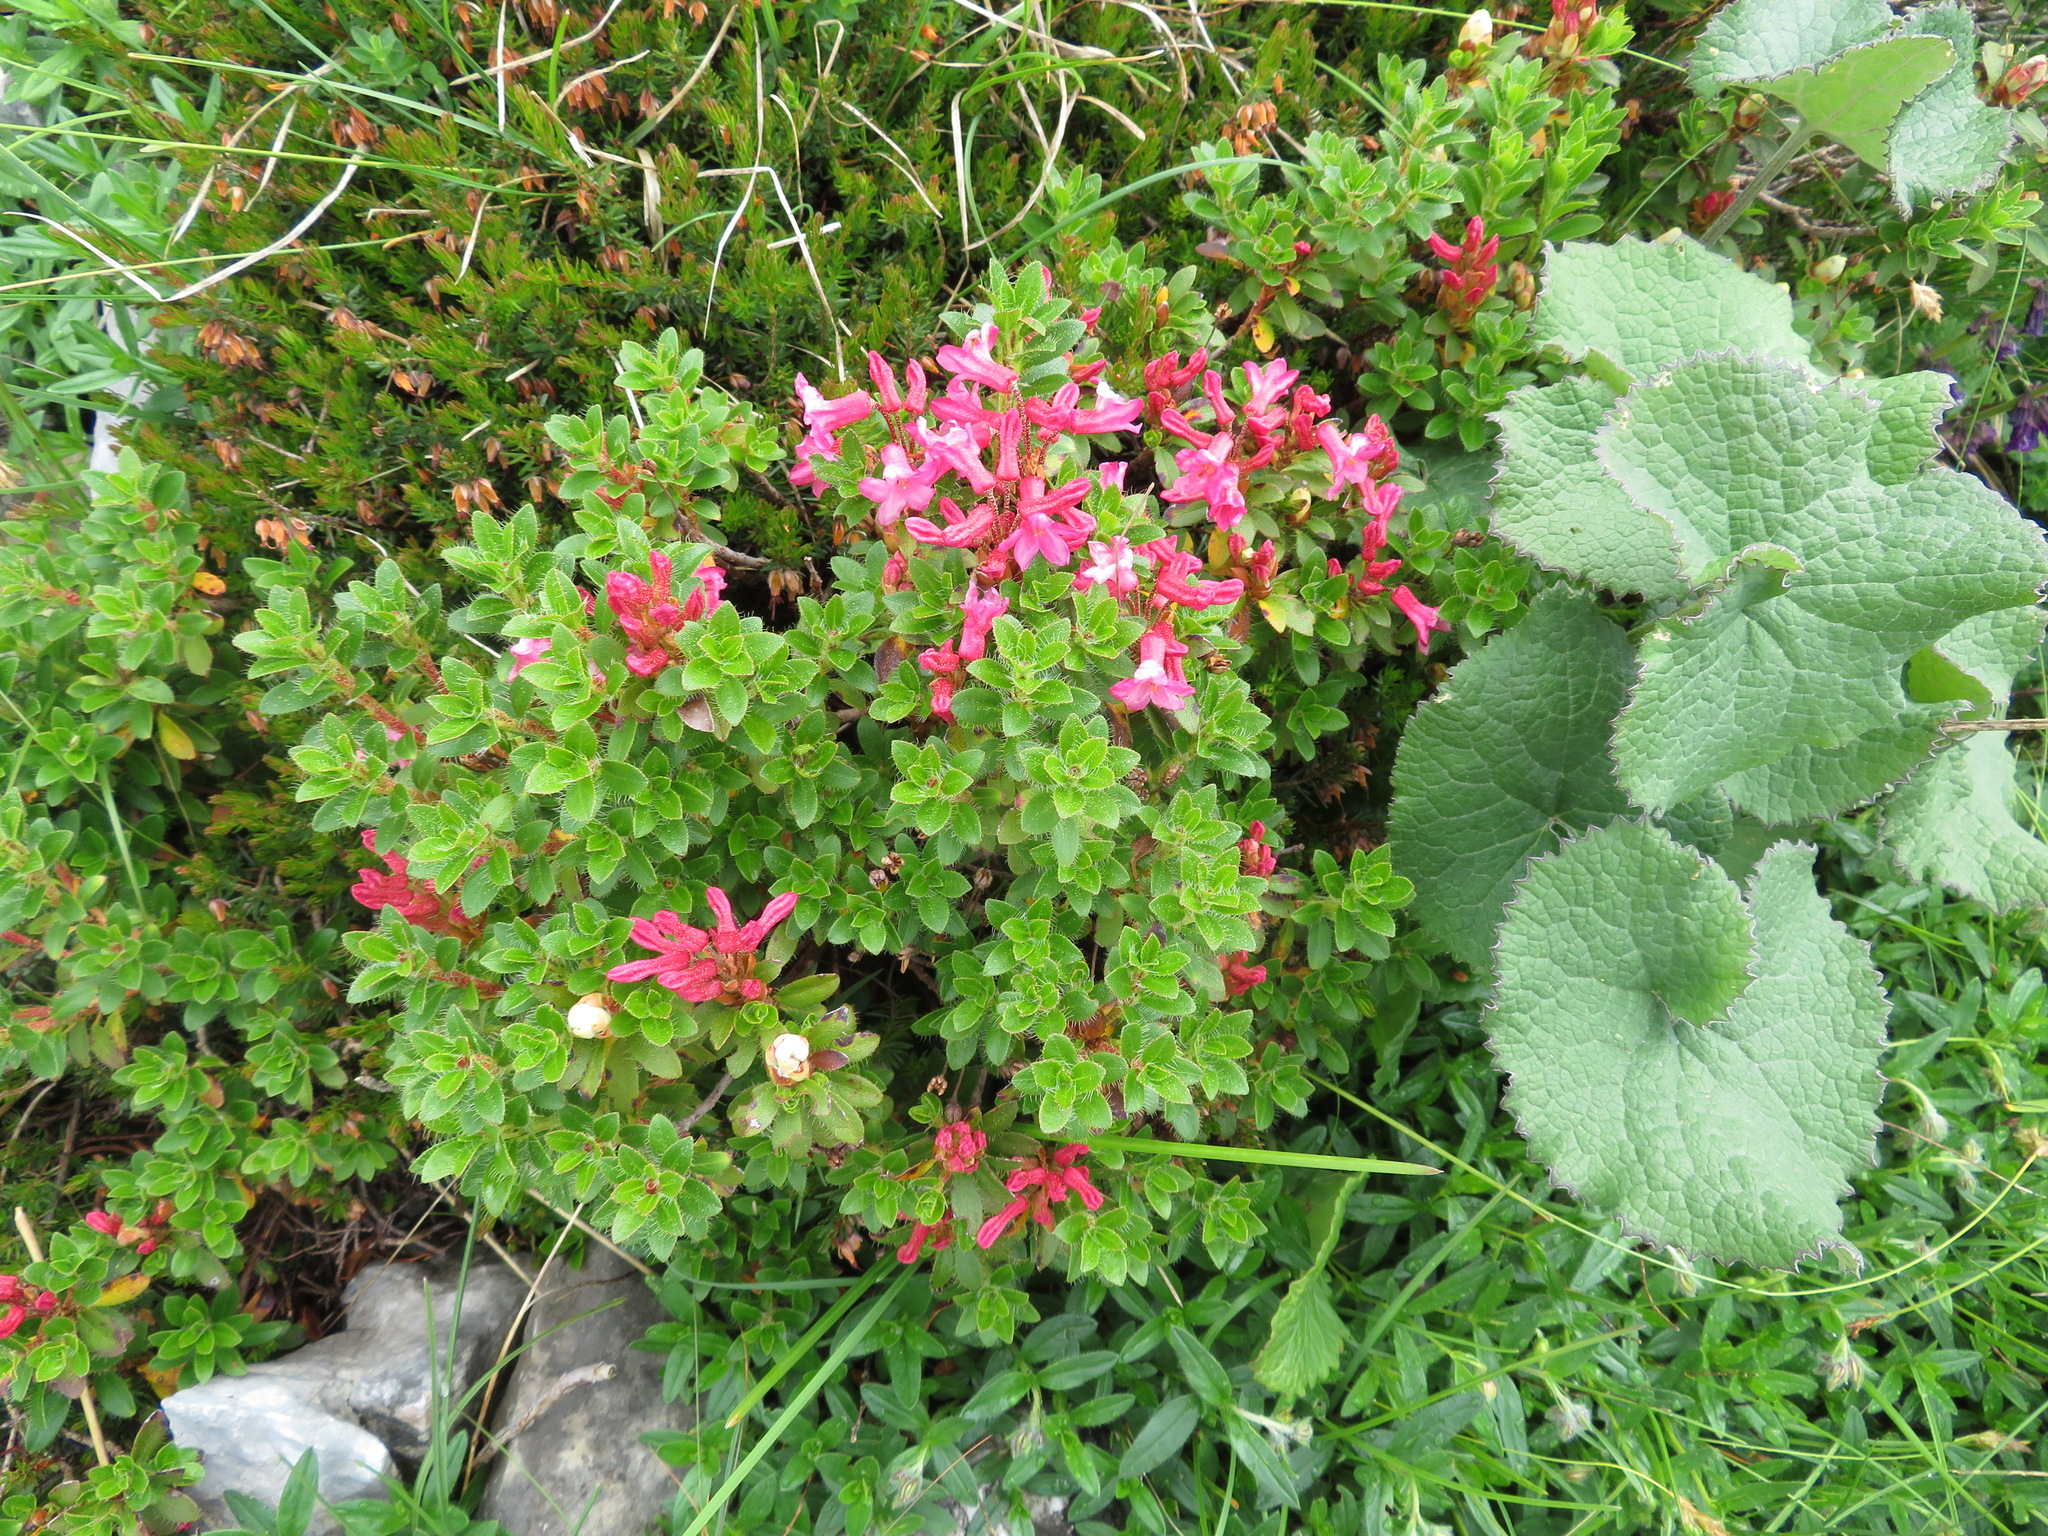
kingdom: Plantae
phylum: Tracheophyta
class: Magnoliopsida
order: Ericales
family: Ericaceae
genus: Rhododendron
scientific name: Rhododendron hirsutum
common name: Hairy alpenrose
